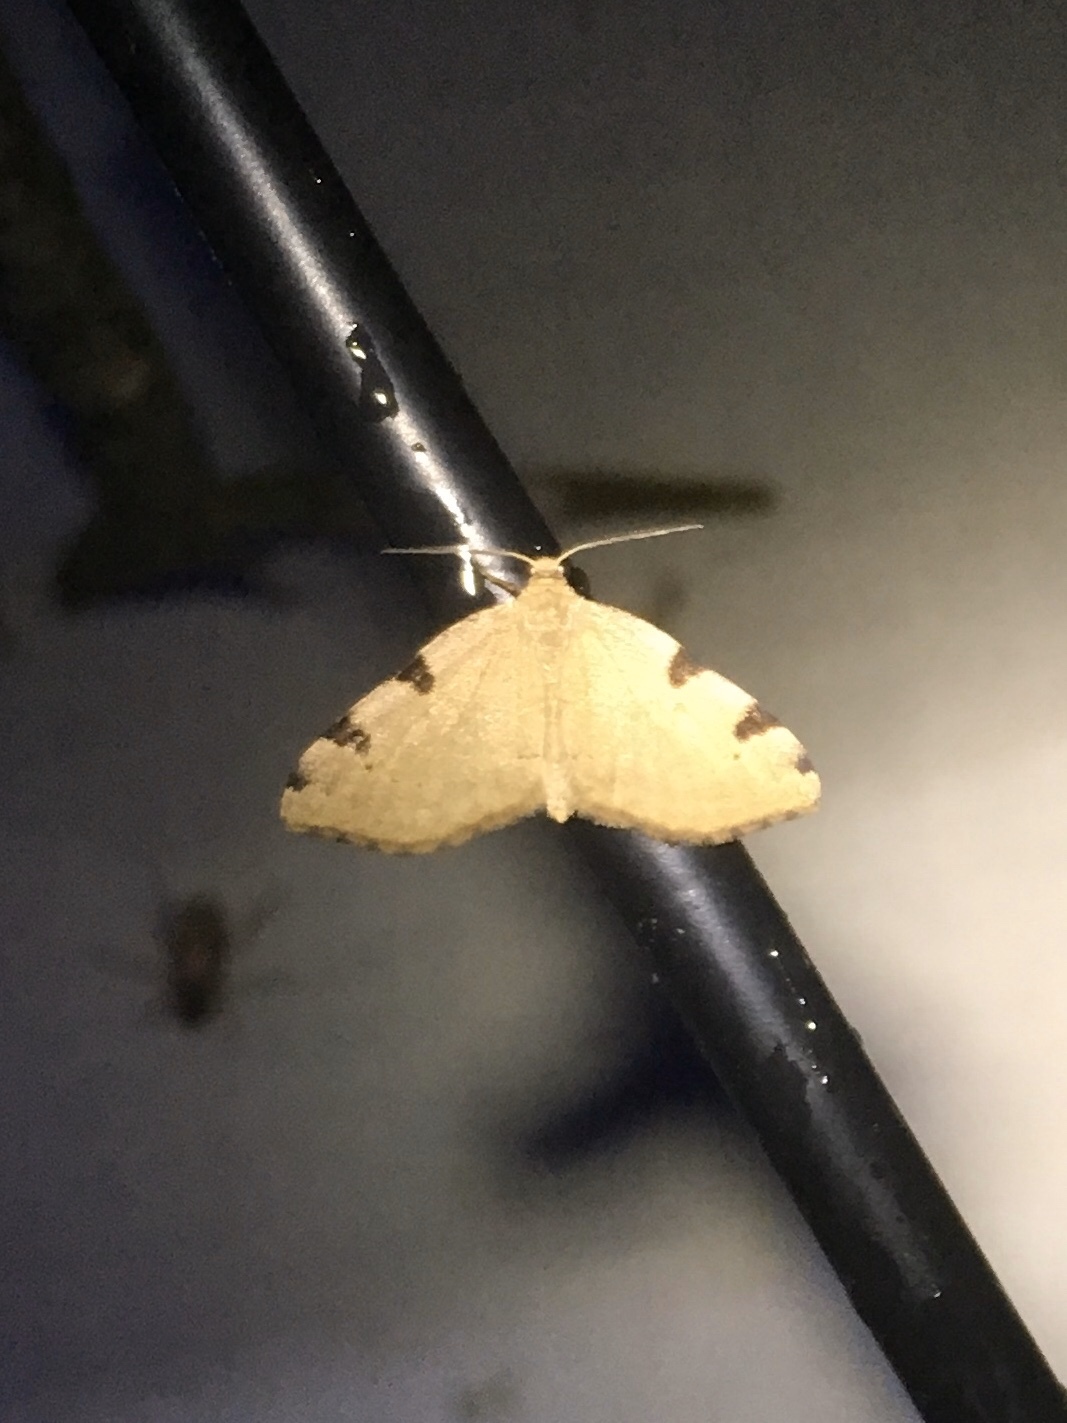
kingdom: Animalia
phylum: Arthropoda
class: Insecta
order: Lepidoptera
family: Geometridae
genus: Heterophleps
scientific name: Heterophleps triguttaria
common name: Three-spotted fillip
